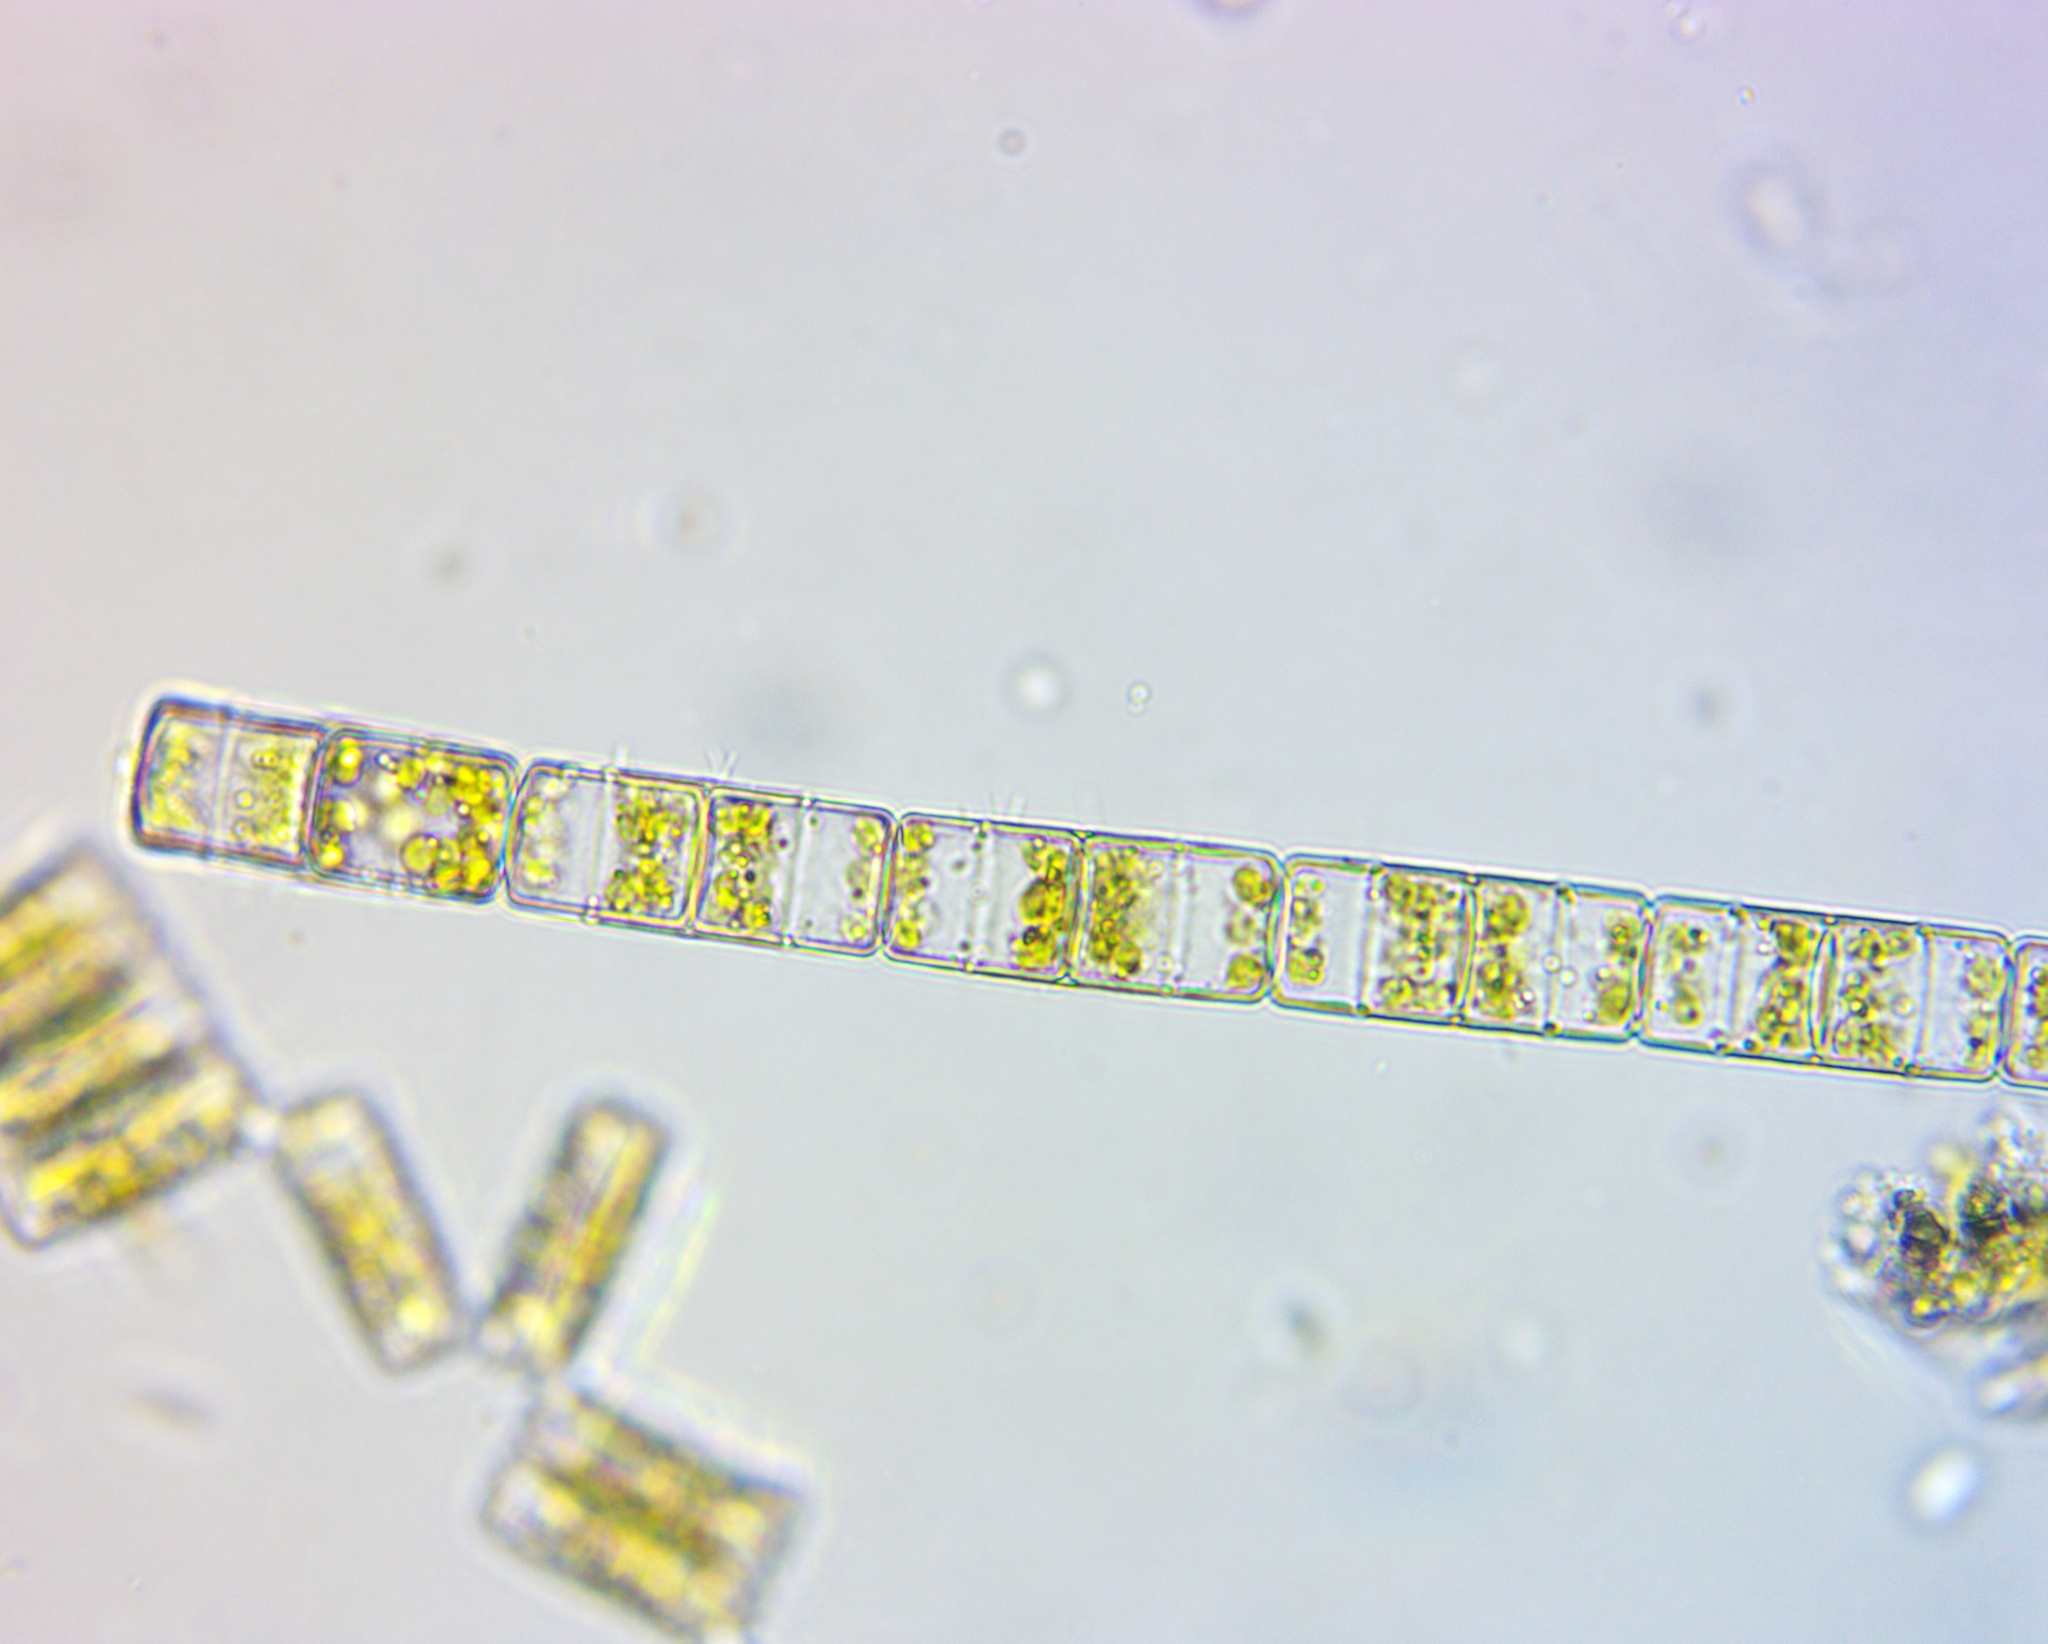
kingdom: Chromista
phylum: Ochrophyta
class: Bacillariophyceae
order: Melosirales
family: Melosiraceae
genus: Melosira
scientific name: Melosira varians
